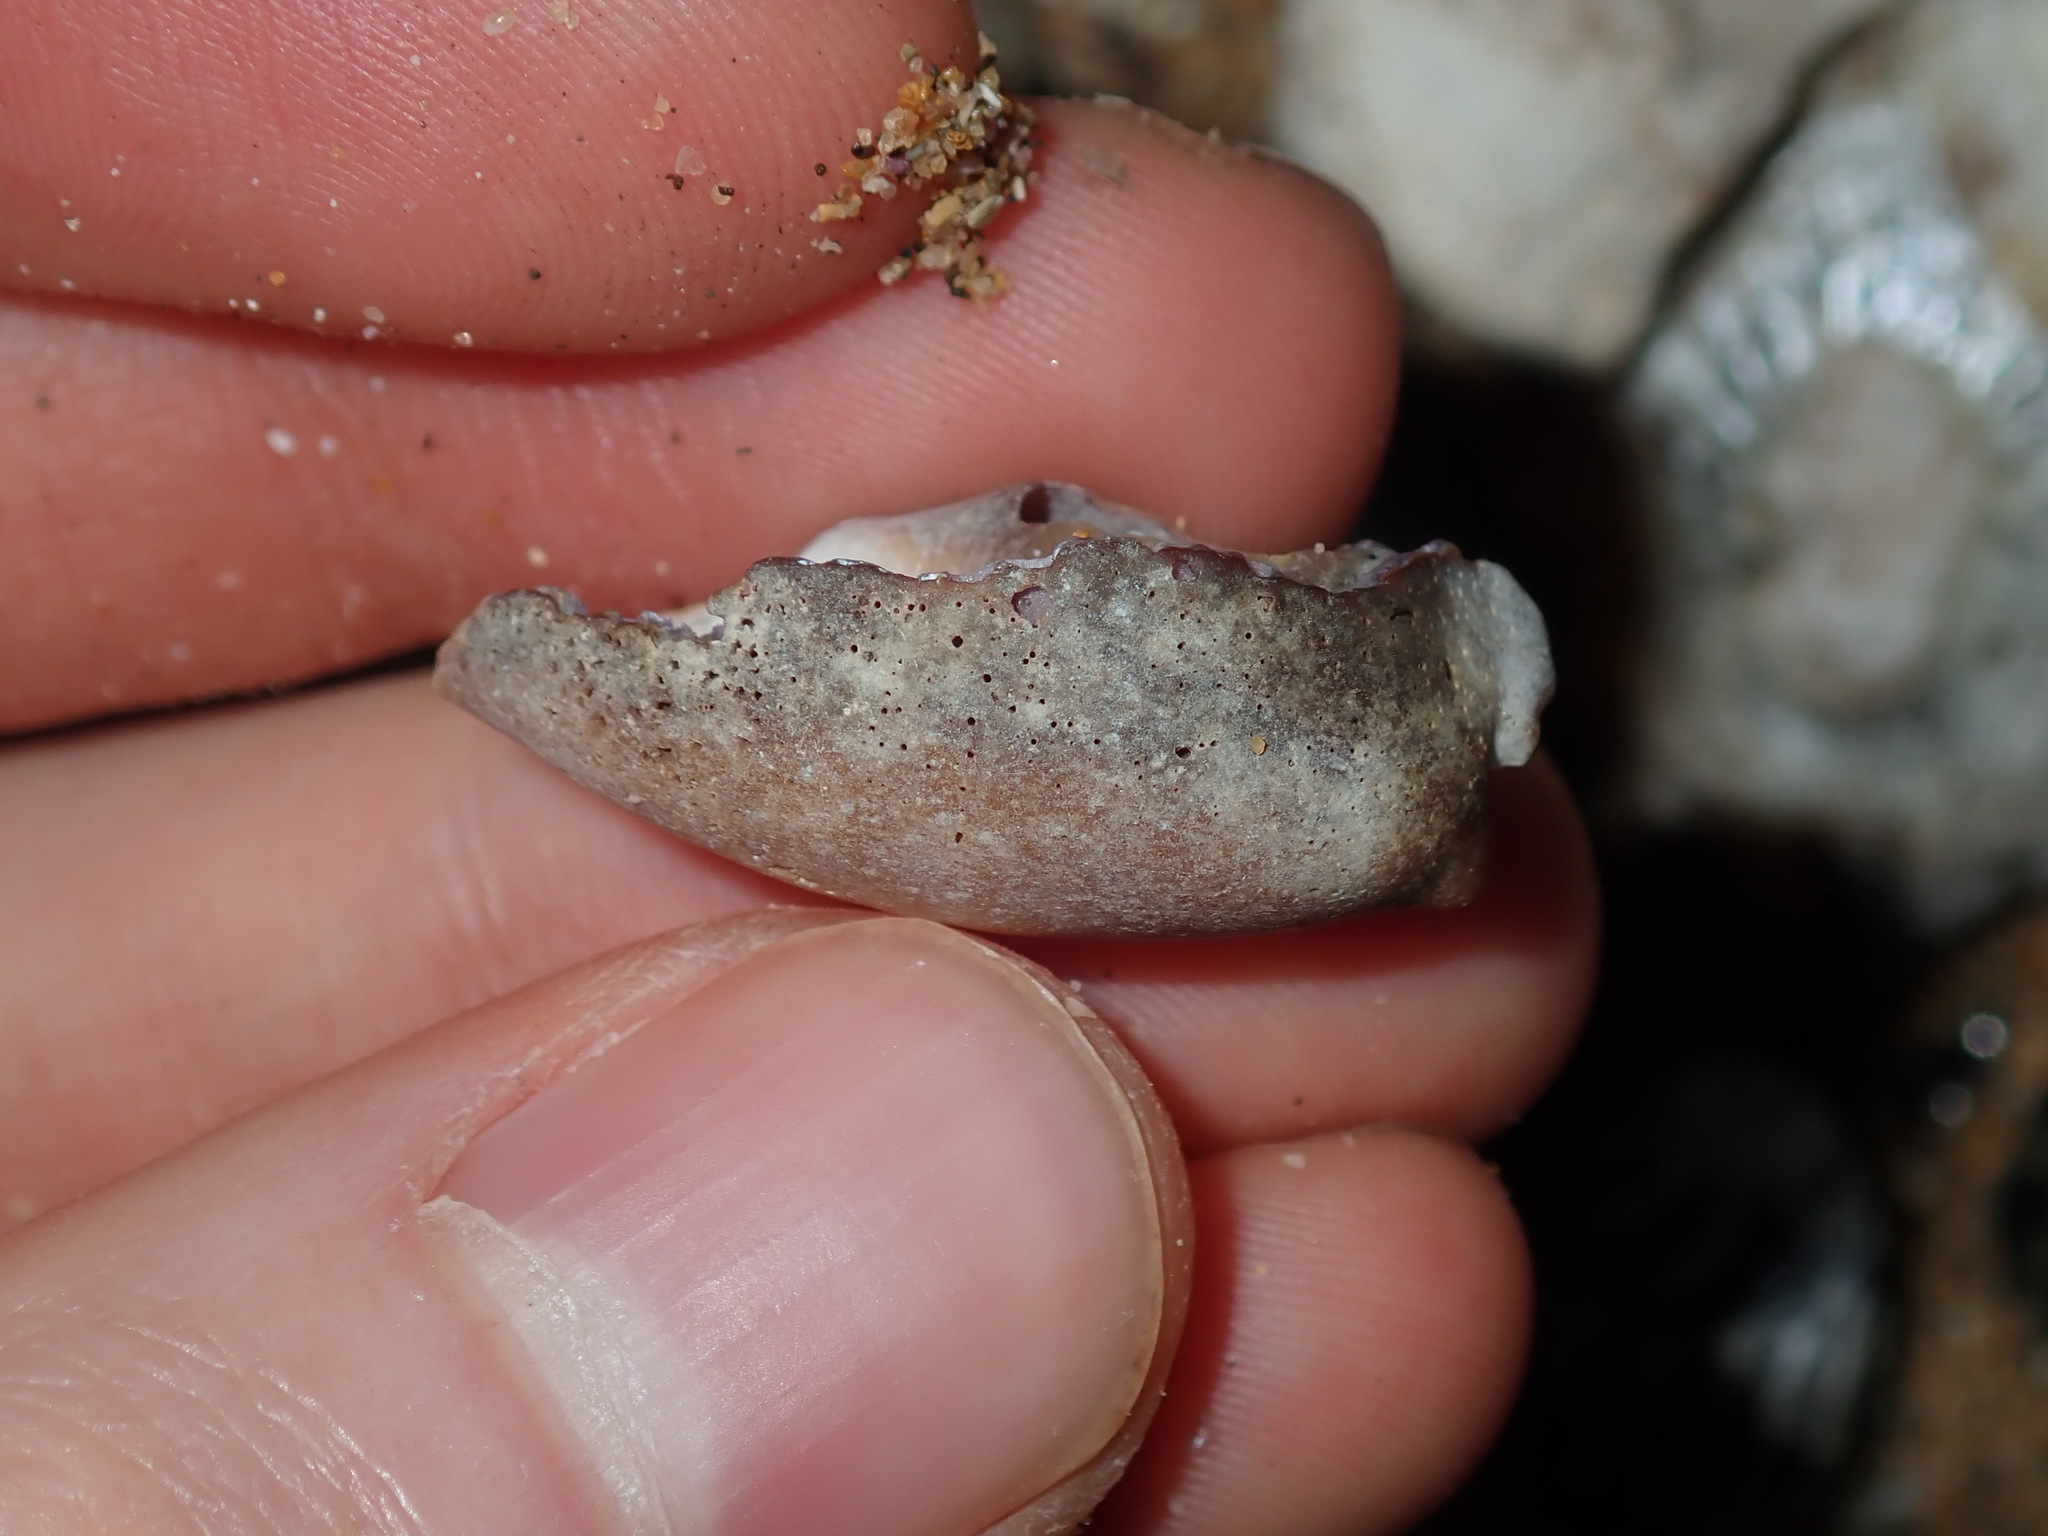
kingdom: Animalia
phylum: Mollusca
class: Gastropoda
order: Littorinimorpha
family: Cypraeidae
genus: Monetaria
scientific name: Monetaria caputserpentis
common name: Serpent's head cowrie
